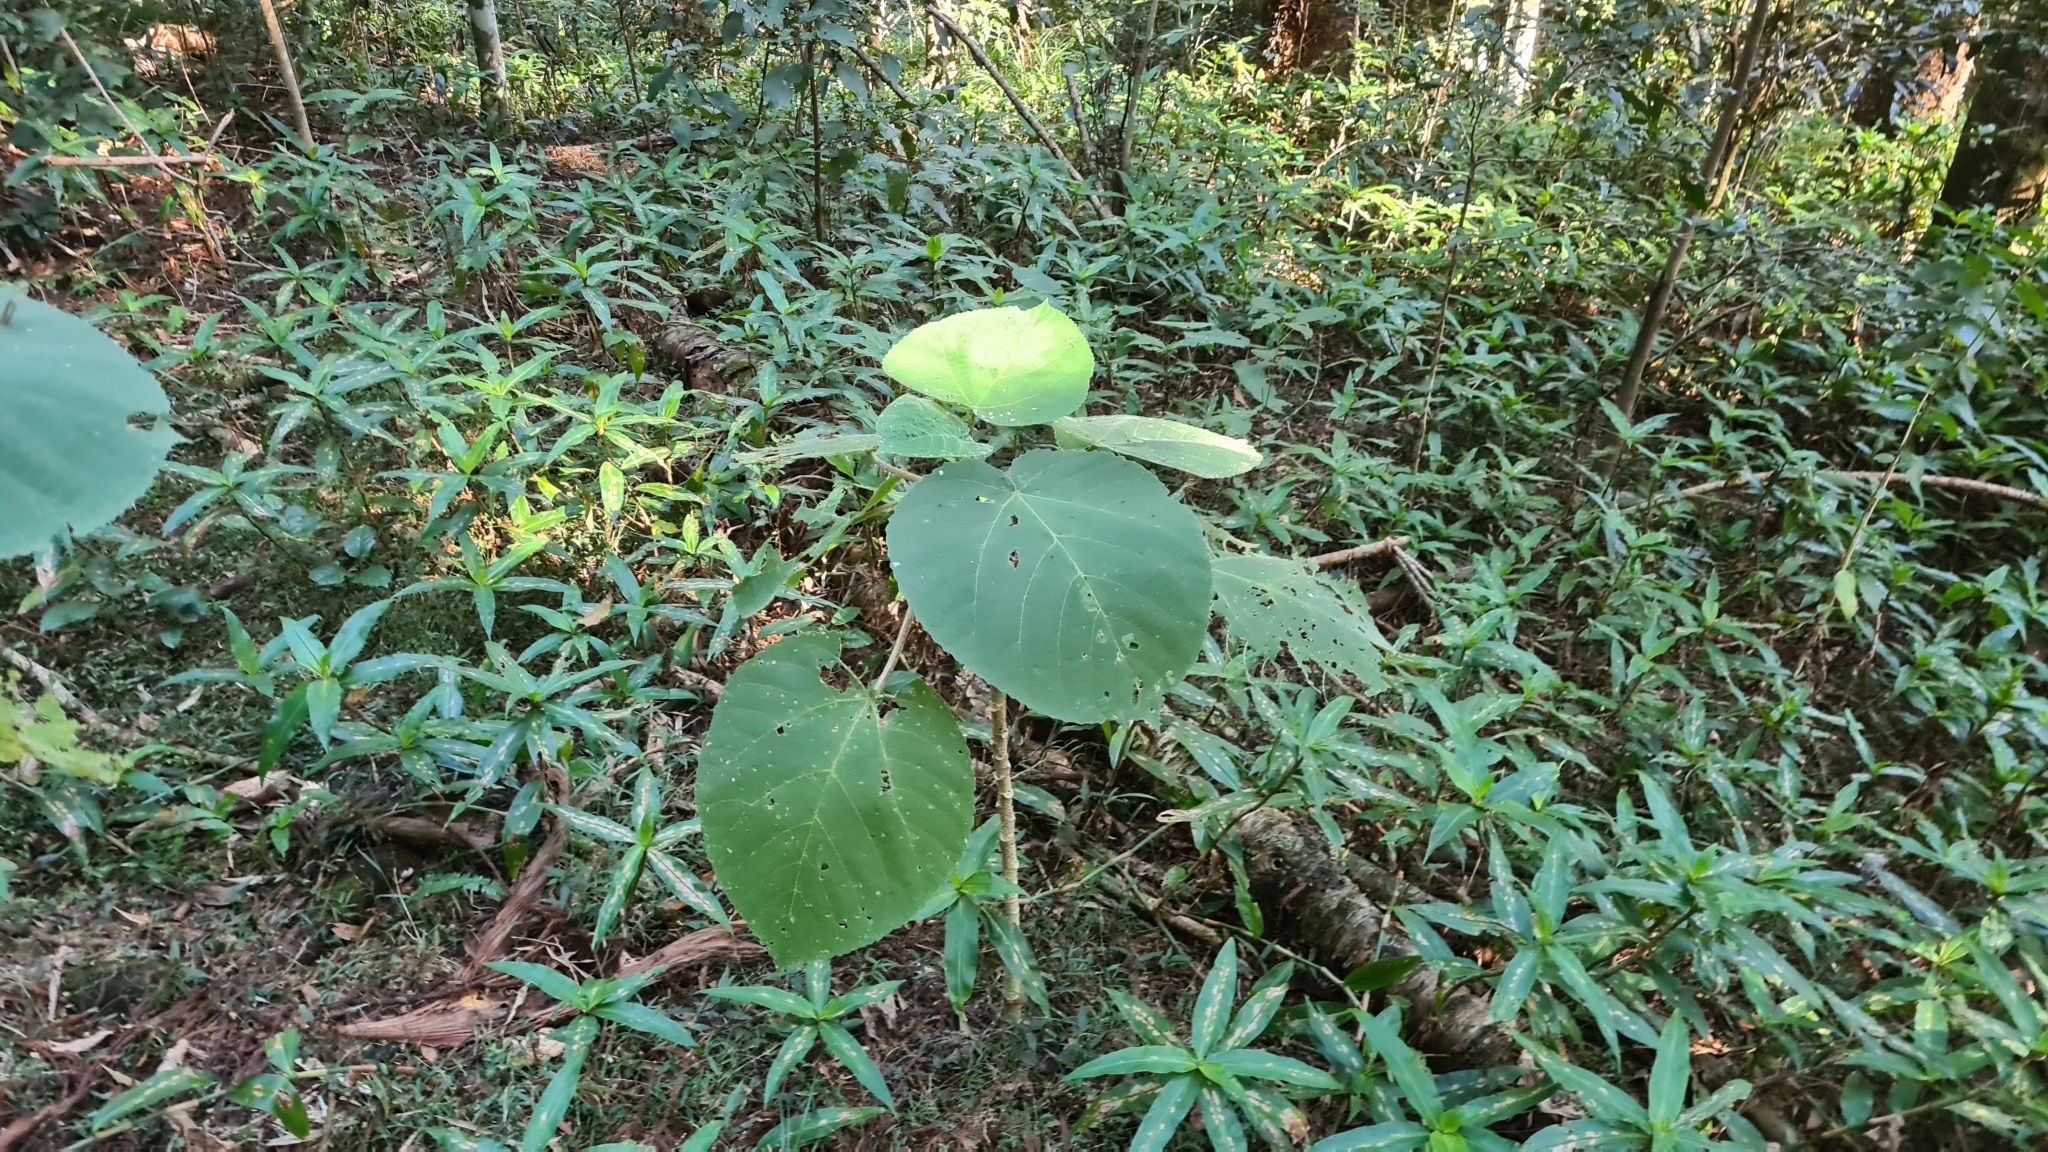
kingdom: Plantae
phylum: Tracheophyta
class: Magnoliopsida
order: Rosales
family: Urticaceae
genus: Dendrocnide
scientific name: Dendrocnide excelsa
